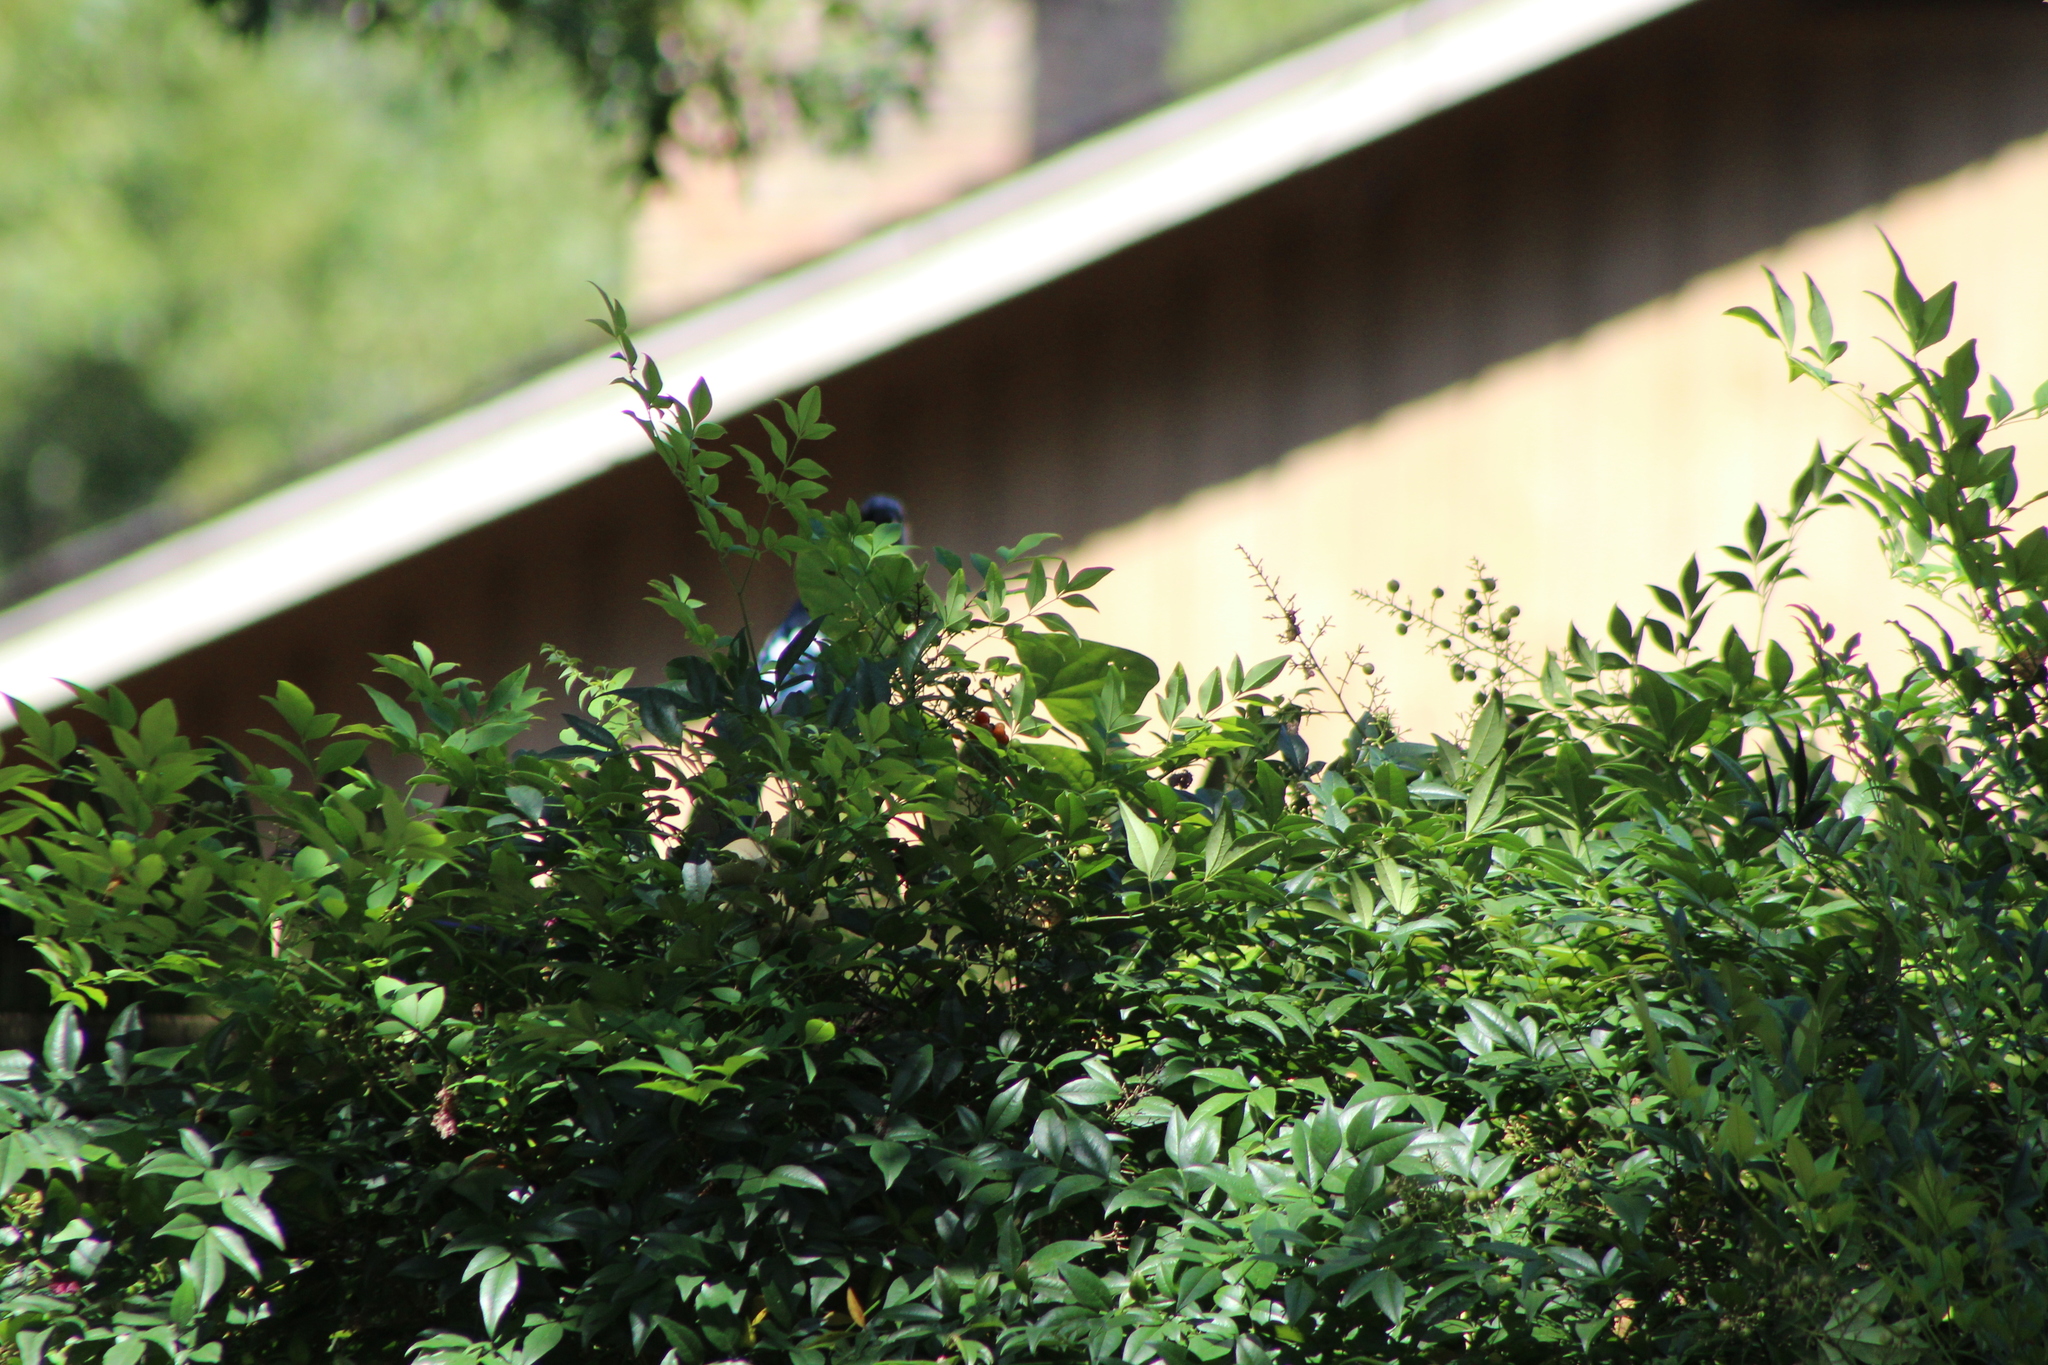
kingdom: Animalia
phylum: Chordata
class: Aves
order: Passeriformes
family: Corvidae
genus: Cyanocitta
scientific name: Cyanocitta cristata
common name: Blue jay
